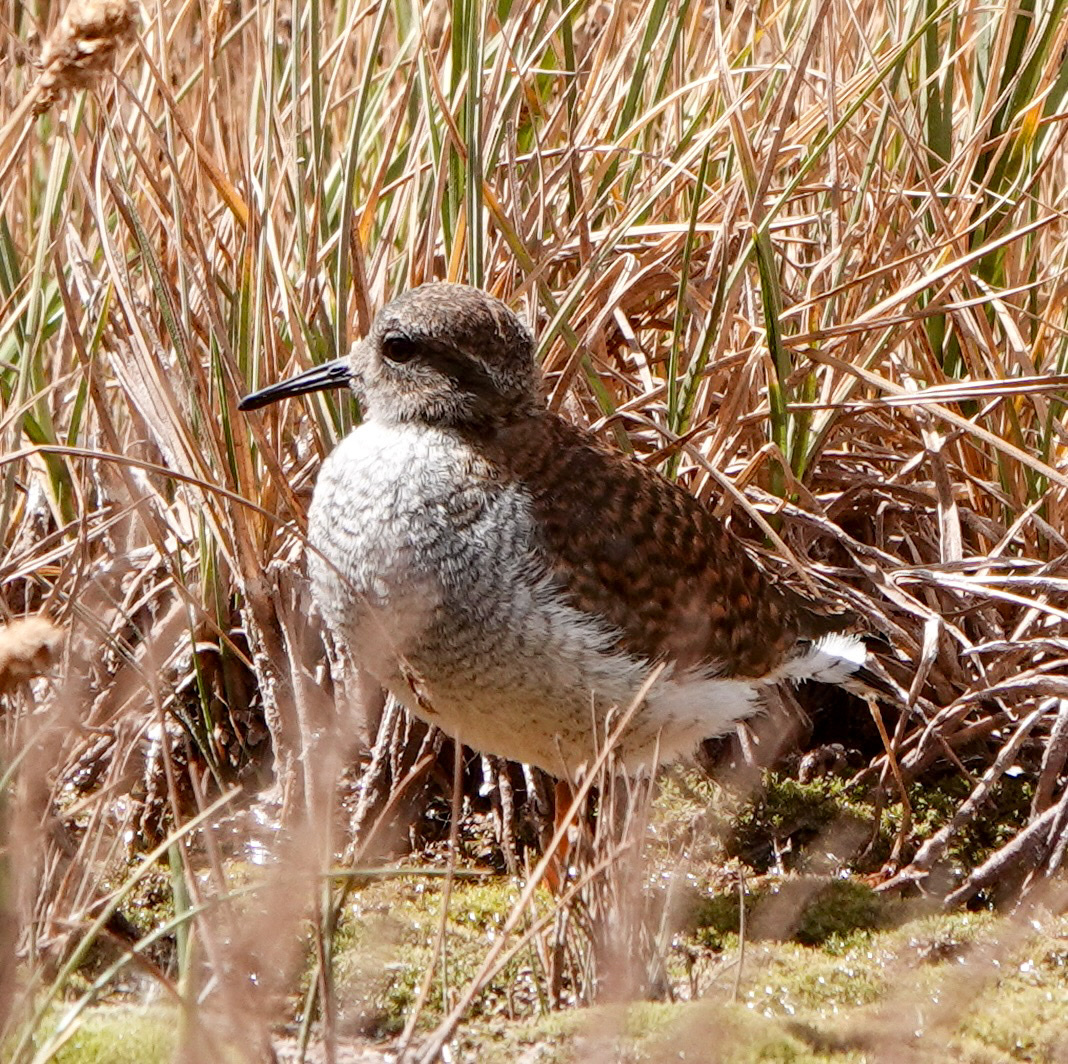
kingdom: Animalia
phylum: Chordata
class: Aves
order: Charadriiformes
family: Charadriidae
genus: Phegornis
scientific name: Phegornis mitchellii
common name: Diademed sandpiper-plover
